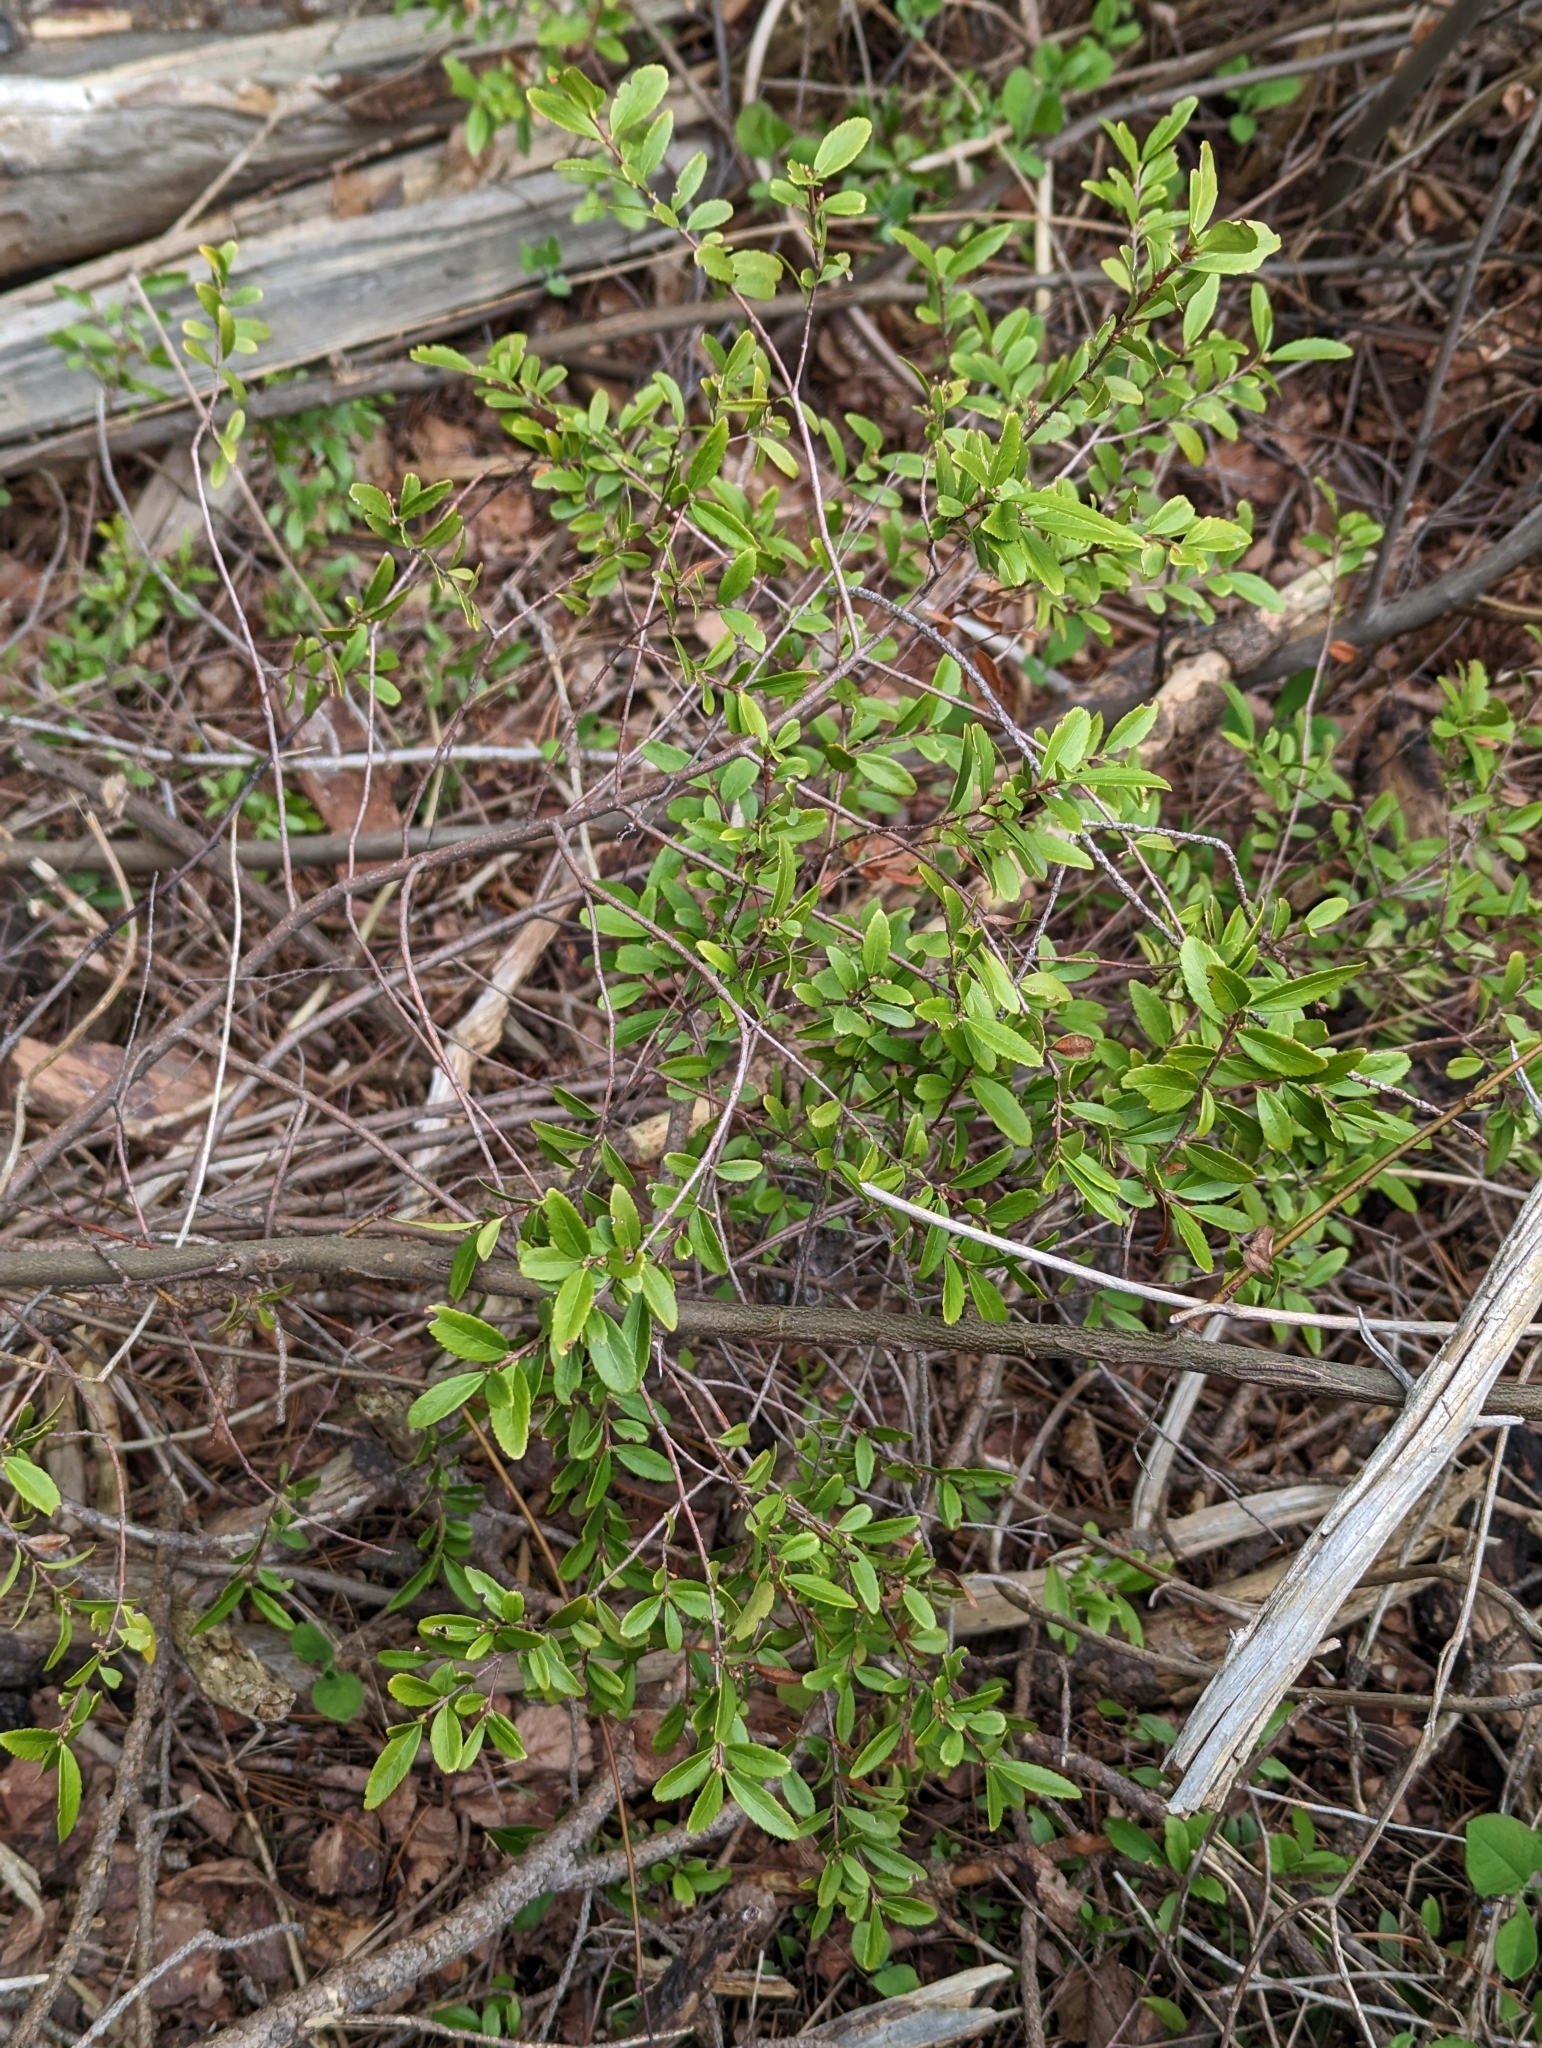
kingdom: Plantae
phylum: Tracheophyta
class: Magnoliopsida
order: Celastrales
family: Celastraceae
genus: Paxistima
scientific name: Paxistima myrsinites
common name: Mountain-lover
